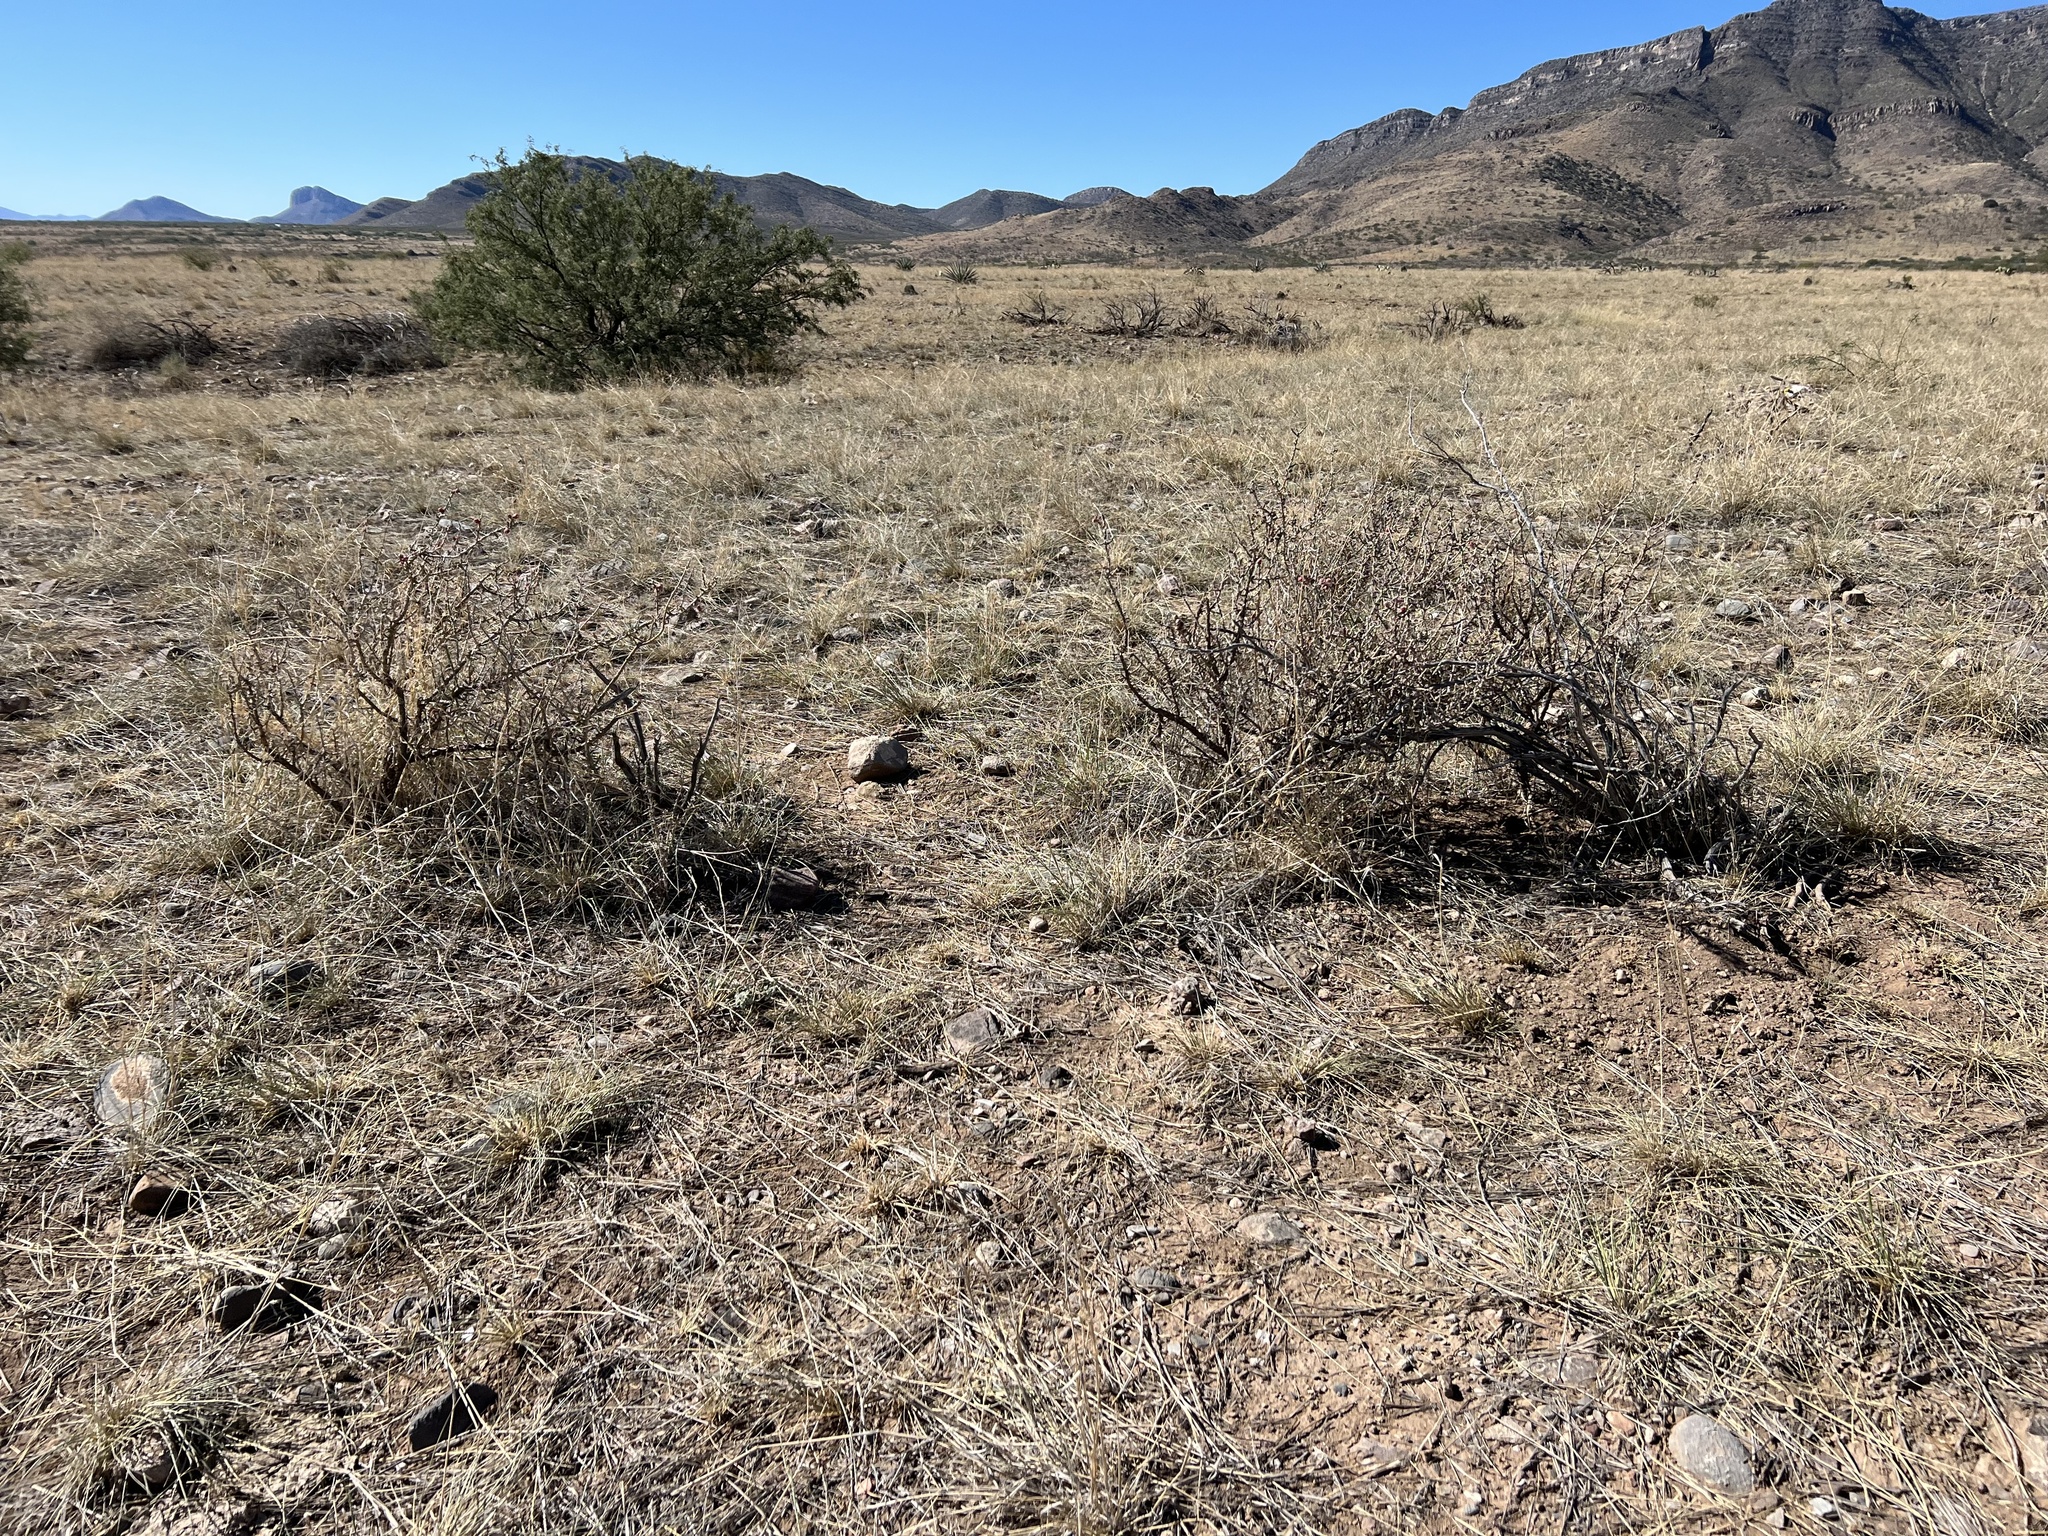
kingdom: Plantae
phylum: Tracheophyta
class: Magnoliopsida
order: Caryophyllales
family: Cactaceae
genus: Cylindropuntia
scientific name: Cylindropuntia leptocaulis
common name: Christmas cactus
